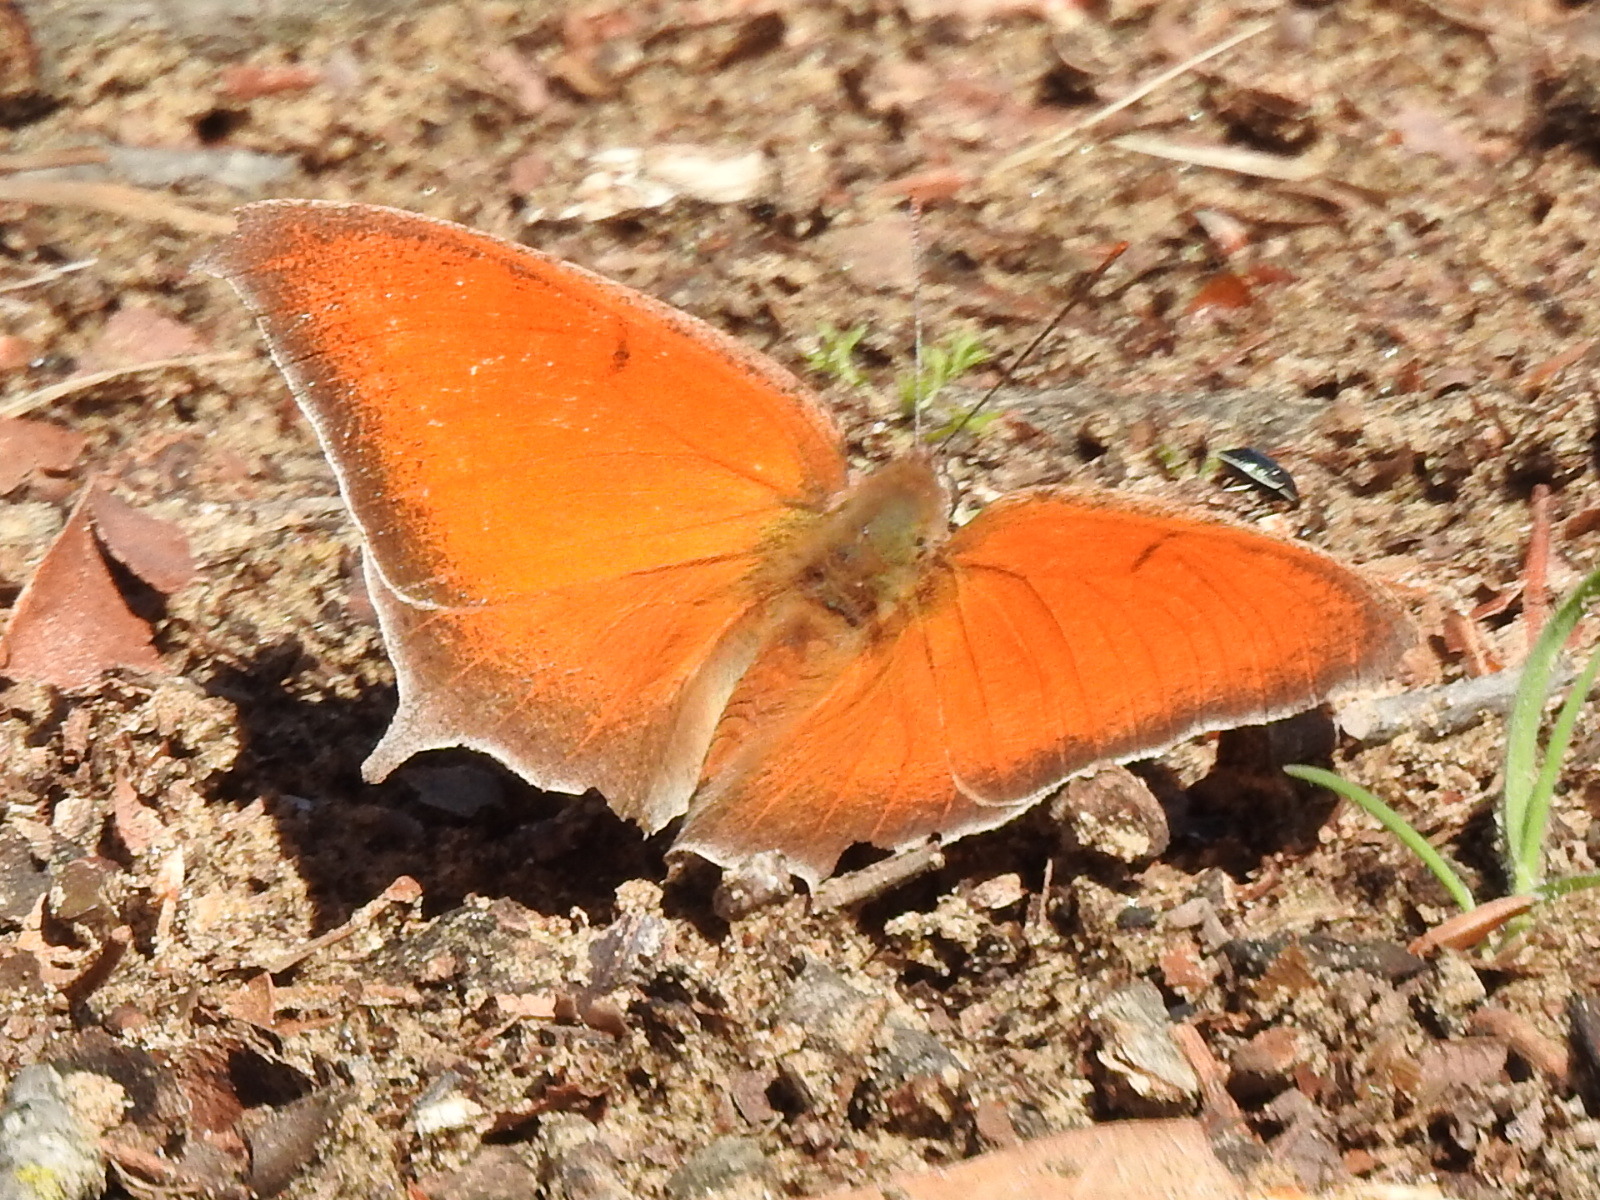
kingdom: Animalia
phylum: Arthropoda
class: Insecta
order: Lepidoptera
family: Nymphalidae
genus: Anaea
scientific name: Anaea andria
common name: Goatweed leafwing
